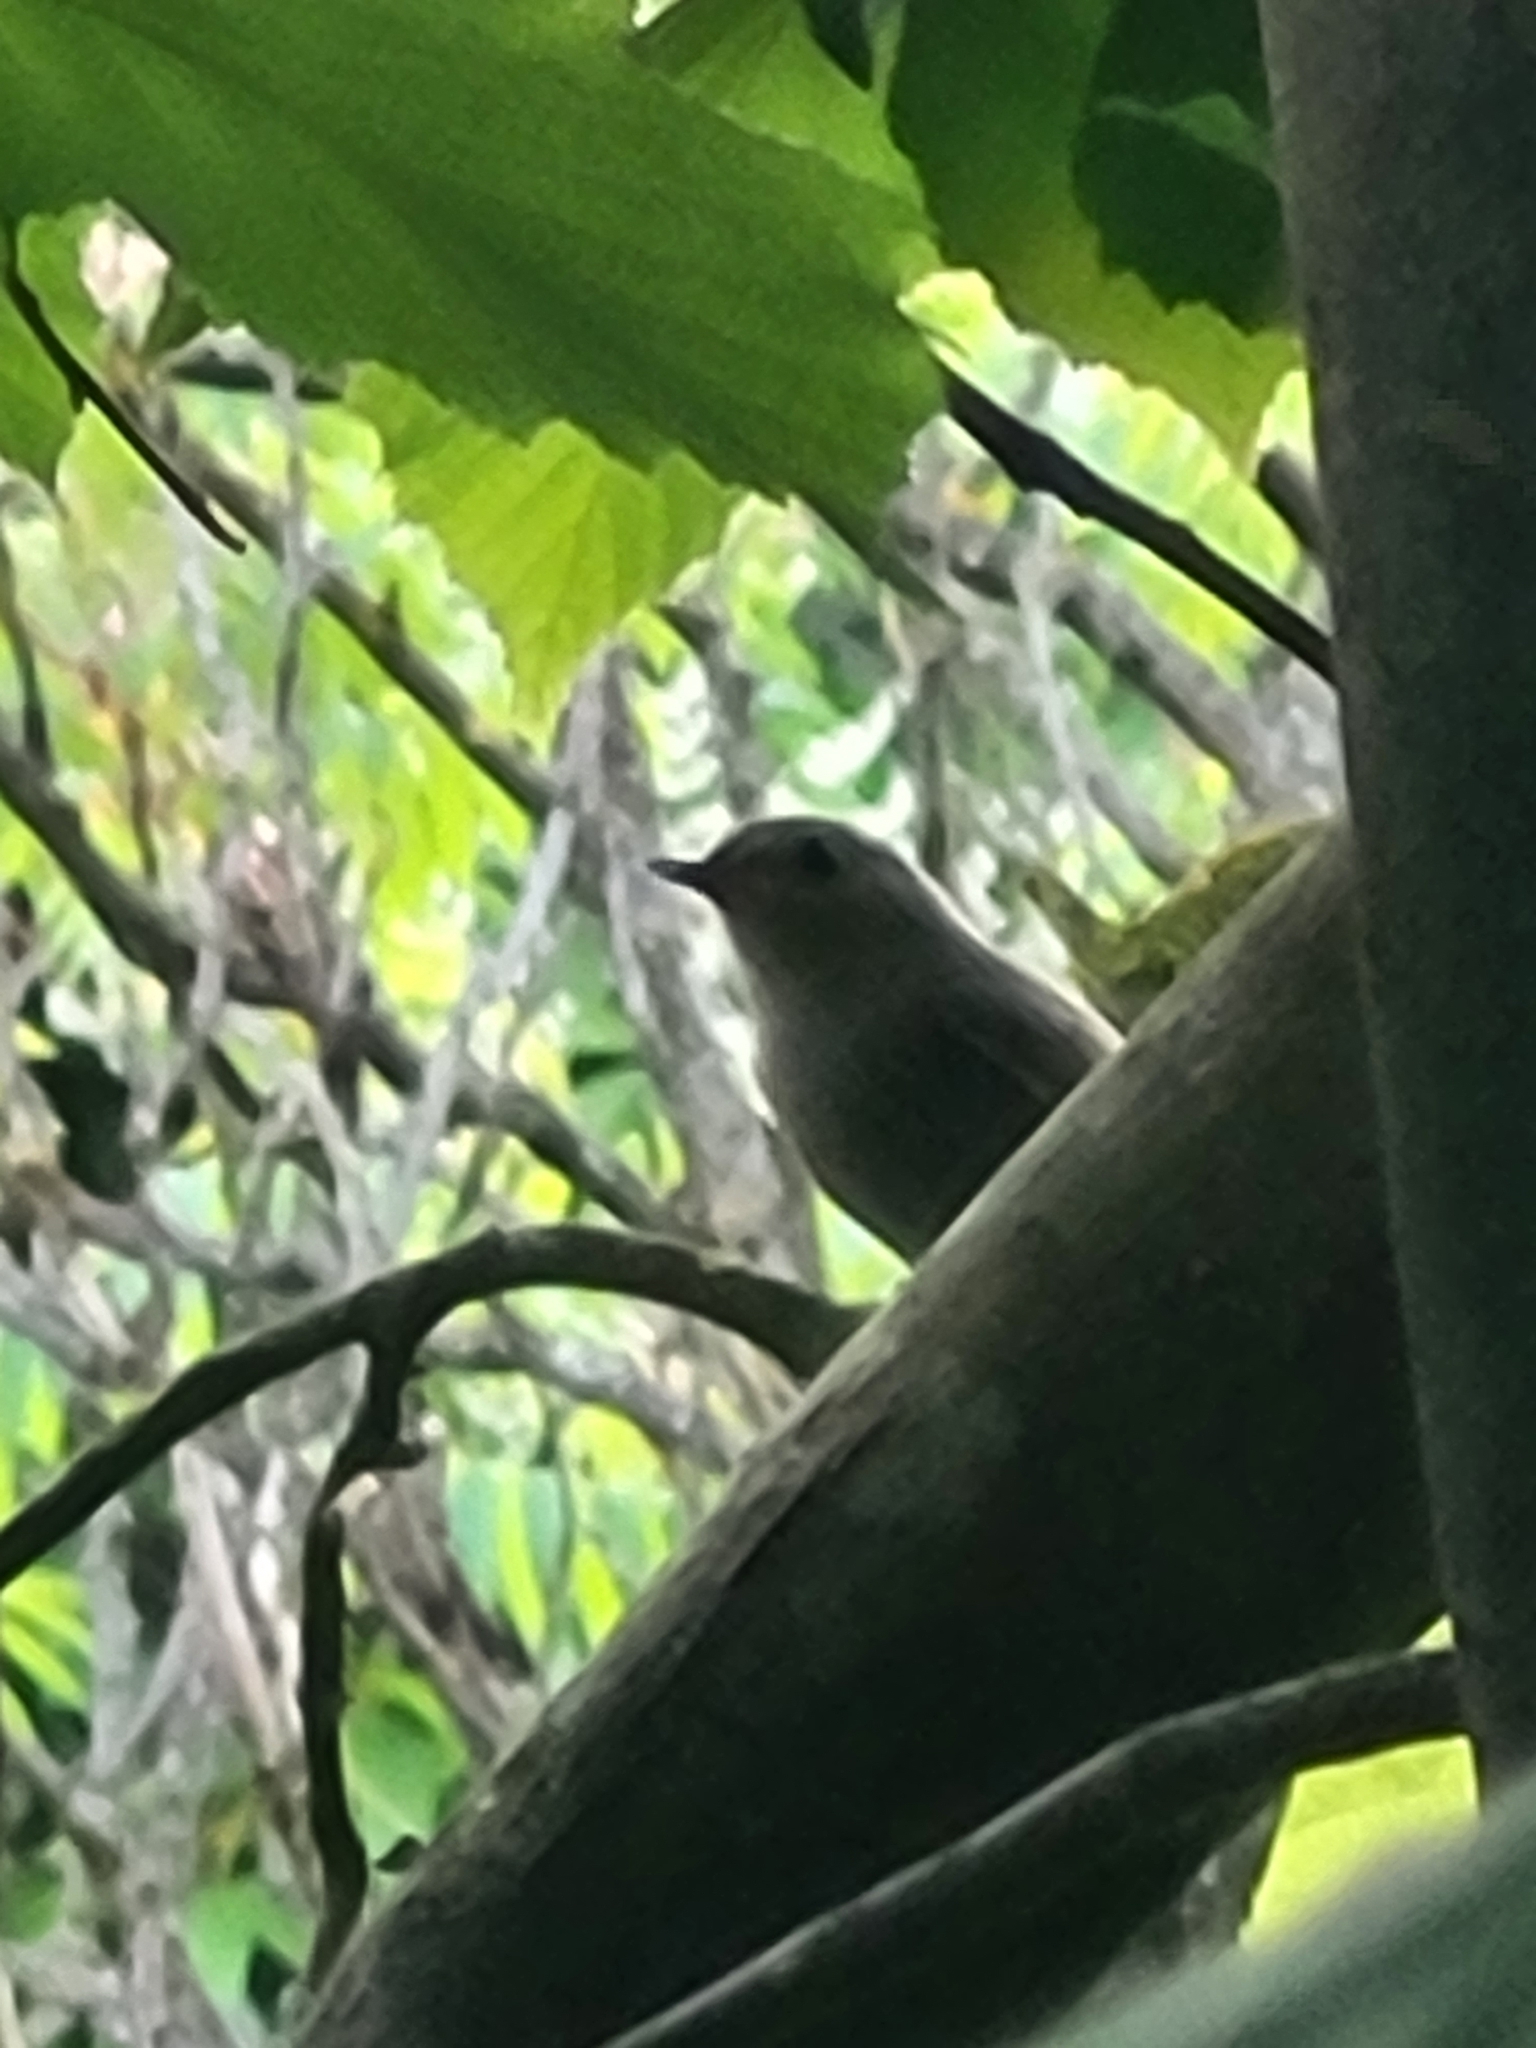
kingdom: Animalia
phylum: Chordata
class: Aves
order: Passeriformes
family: Muscicapidae
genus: Phoenicurus
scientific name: Phoenicurus ochruros
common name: Black redstart
